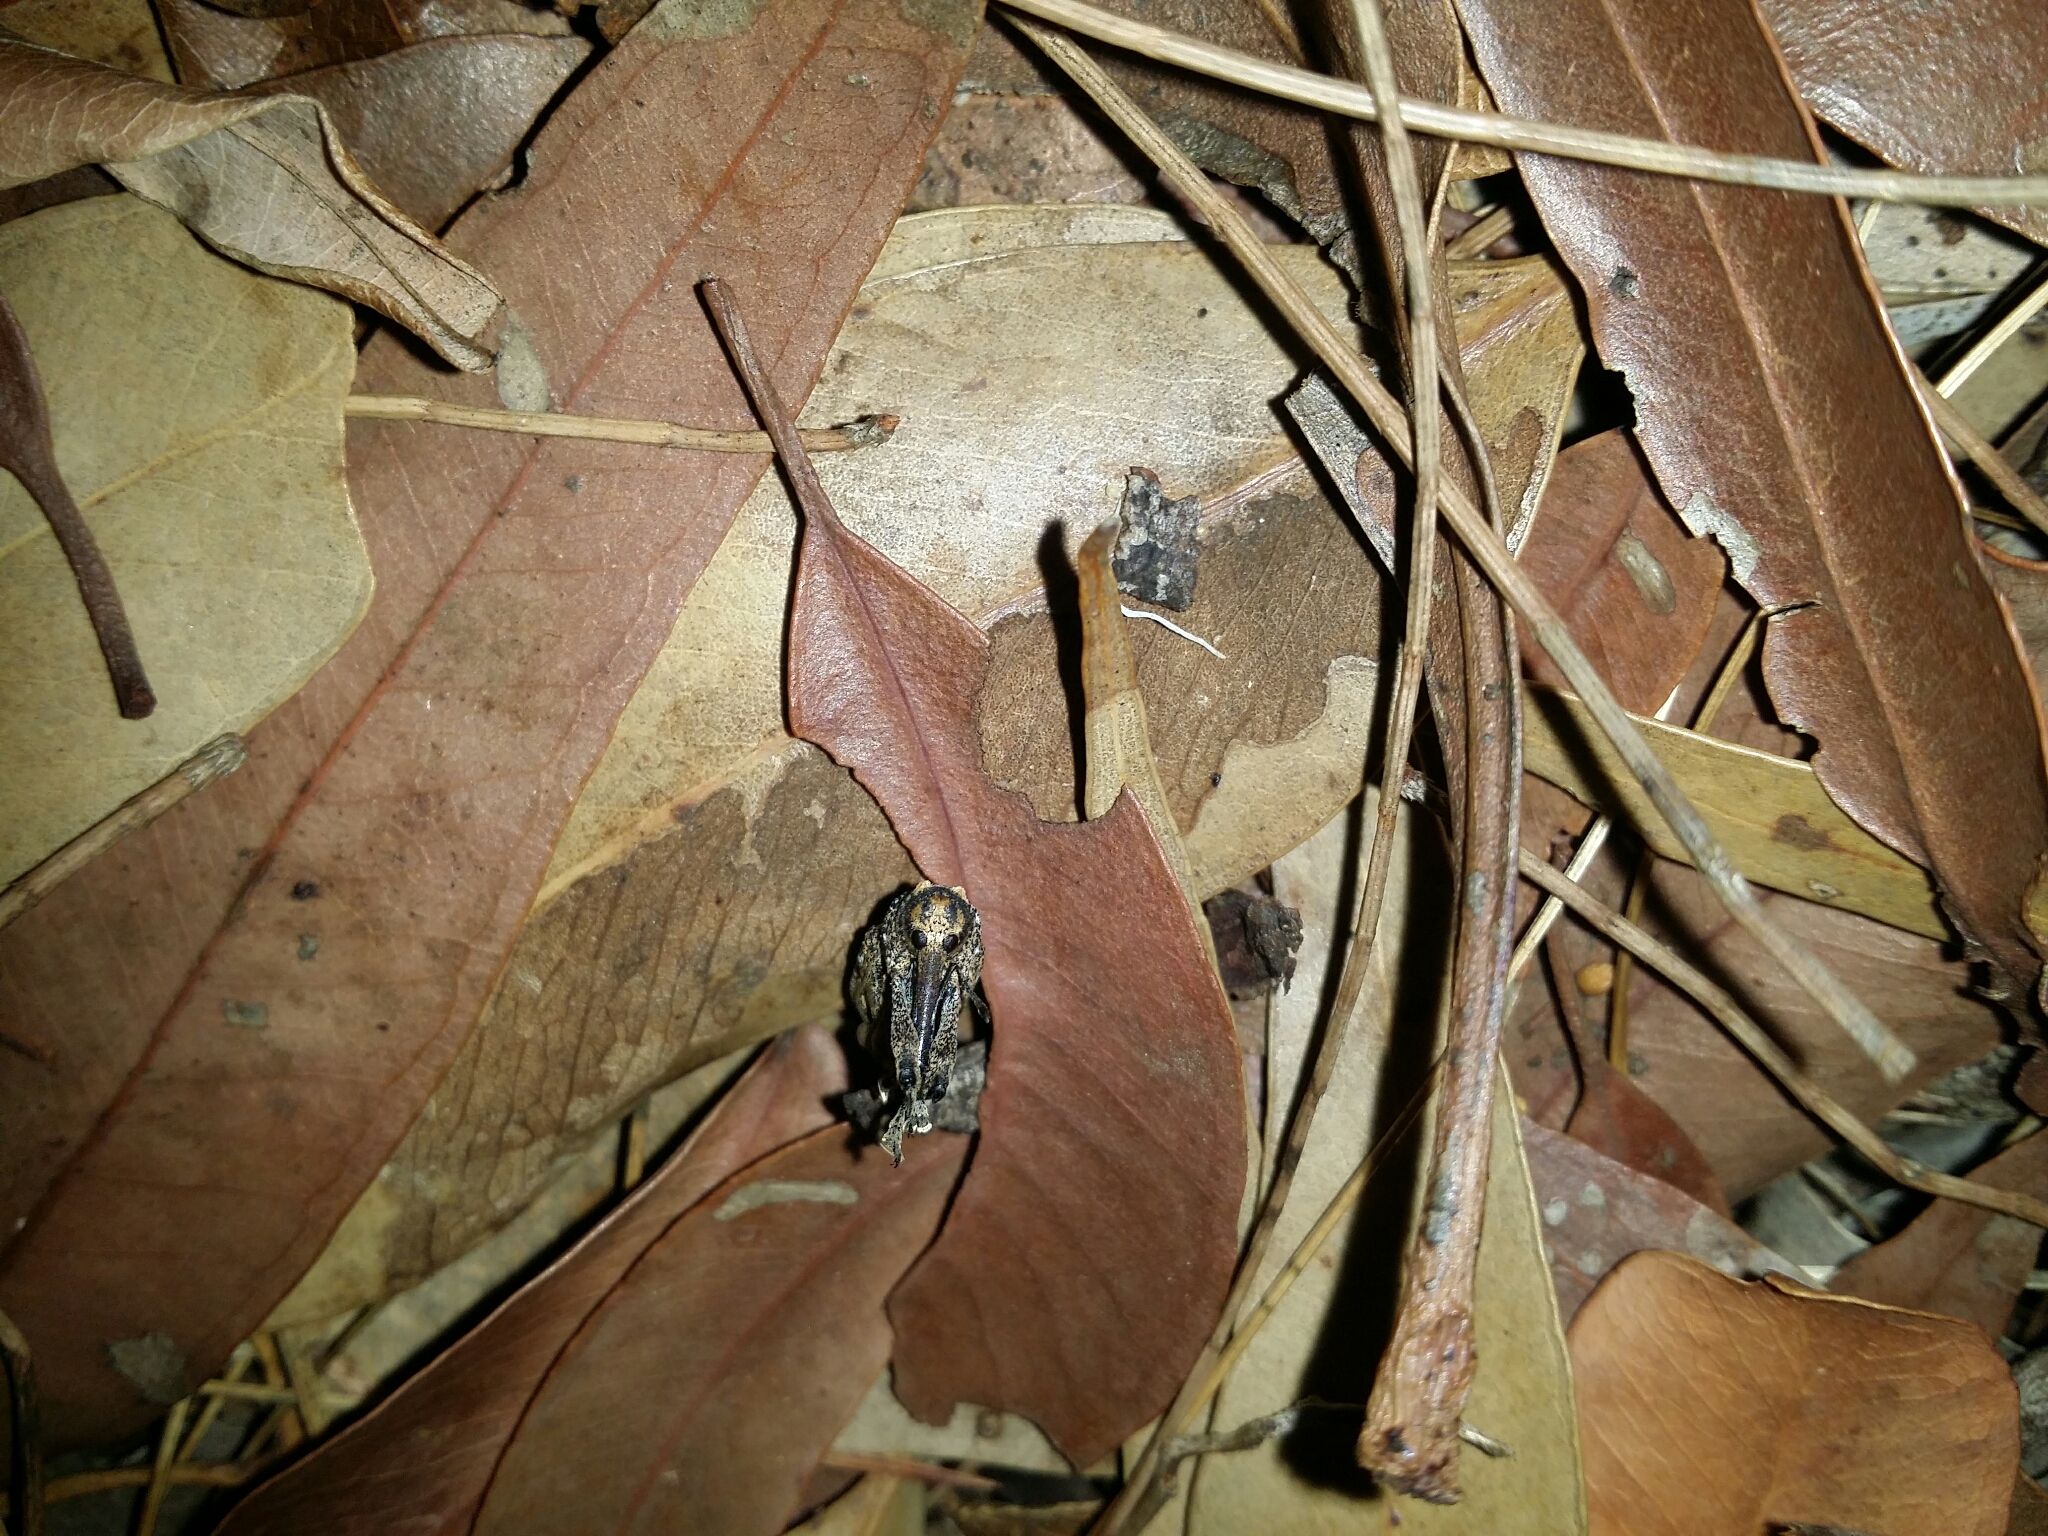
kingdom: Animalia
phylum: Arthropoda
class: Insecta
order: Coleoptera
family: Curculionidae
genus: Orthorhinus
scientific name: Orthorhinus cylindrirostris
